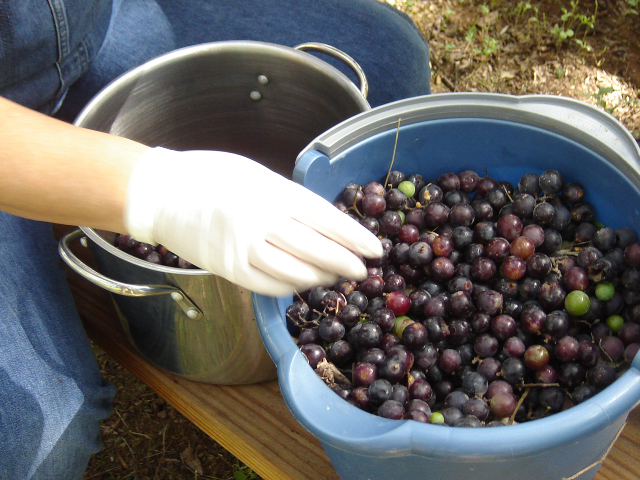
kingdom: Plantae
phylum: Tracheophyta
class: Magnoliopsida
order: Vitales
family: Vitaceae
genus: Vitis
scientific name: Vitis mustangensis
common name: Mustang grape
